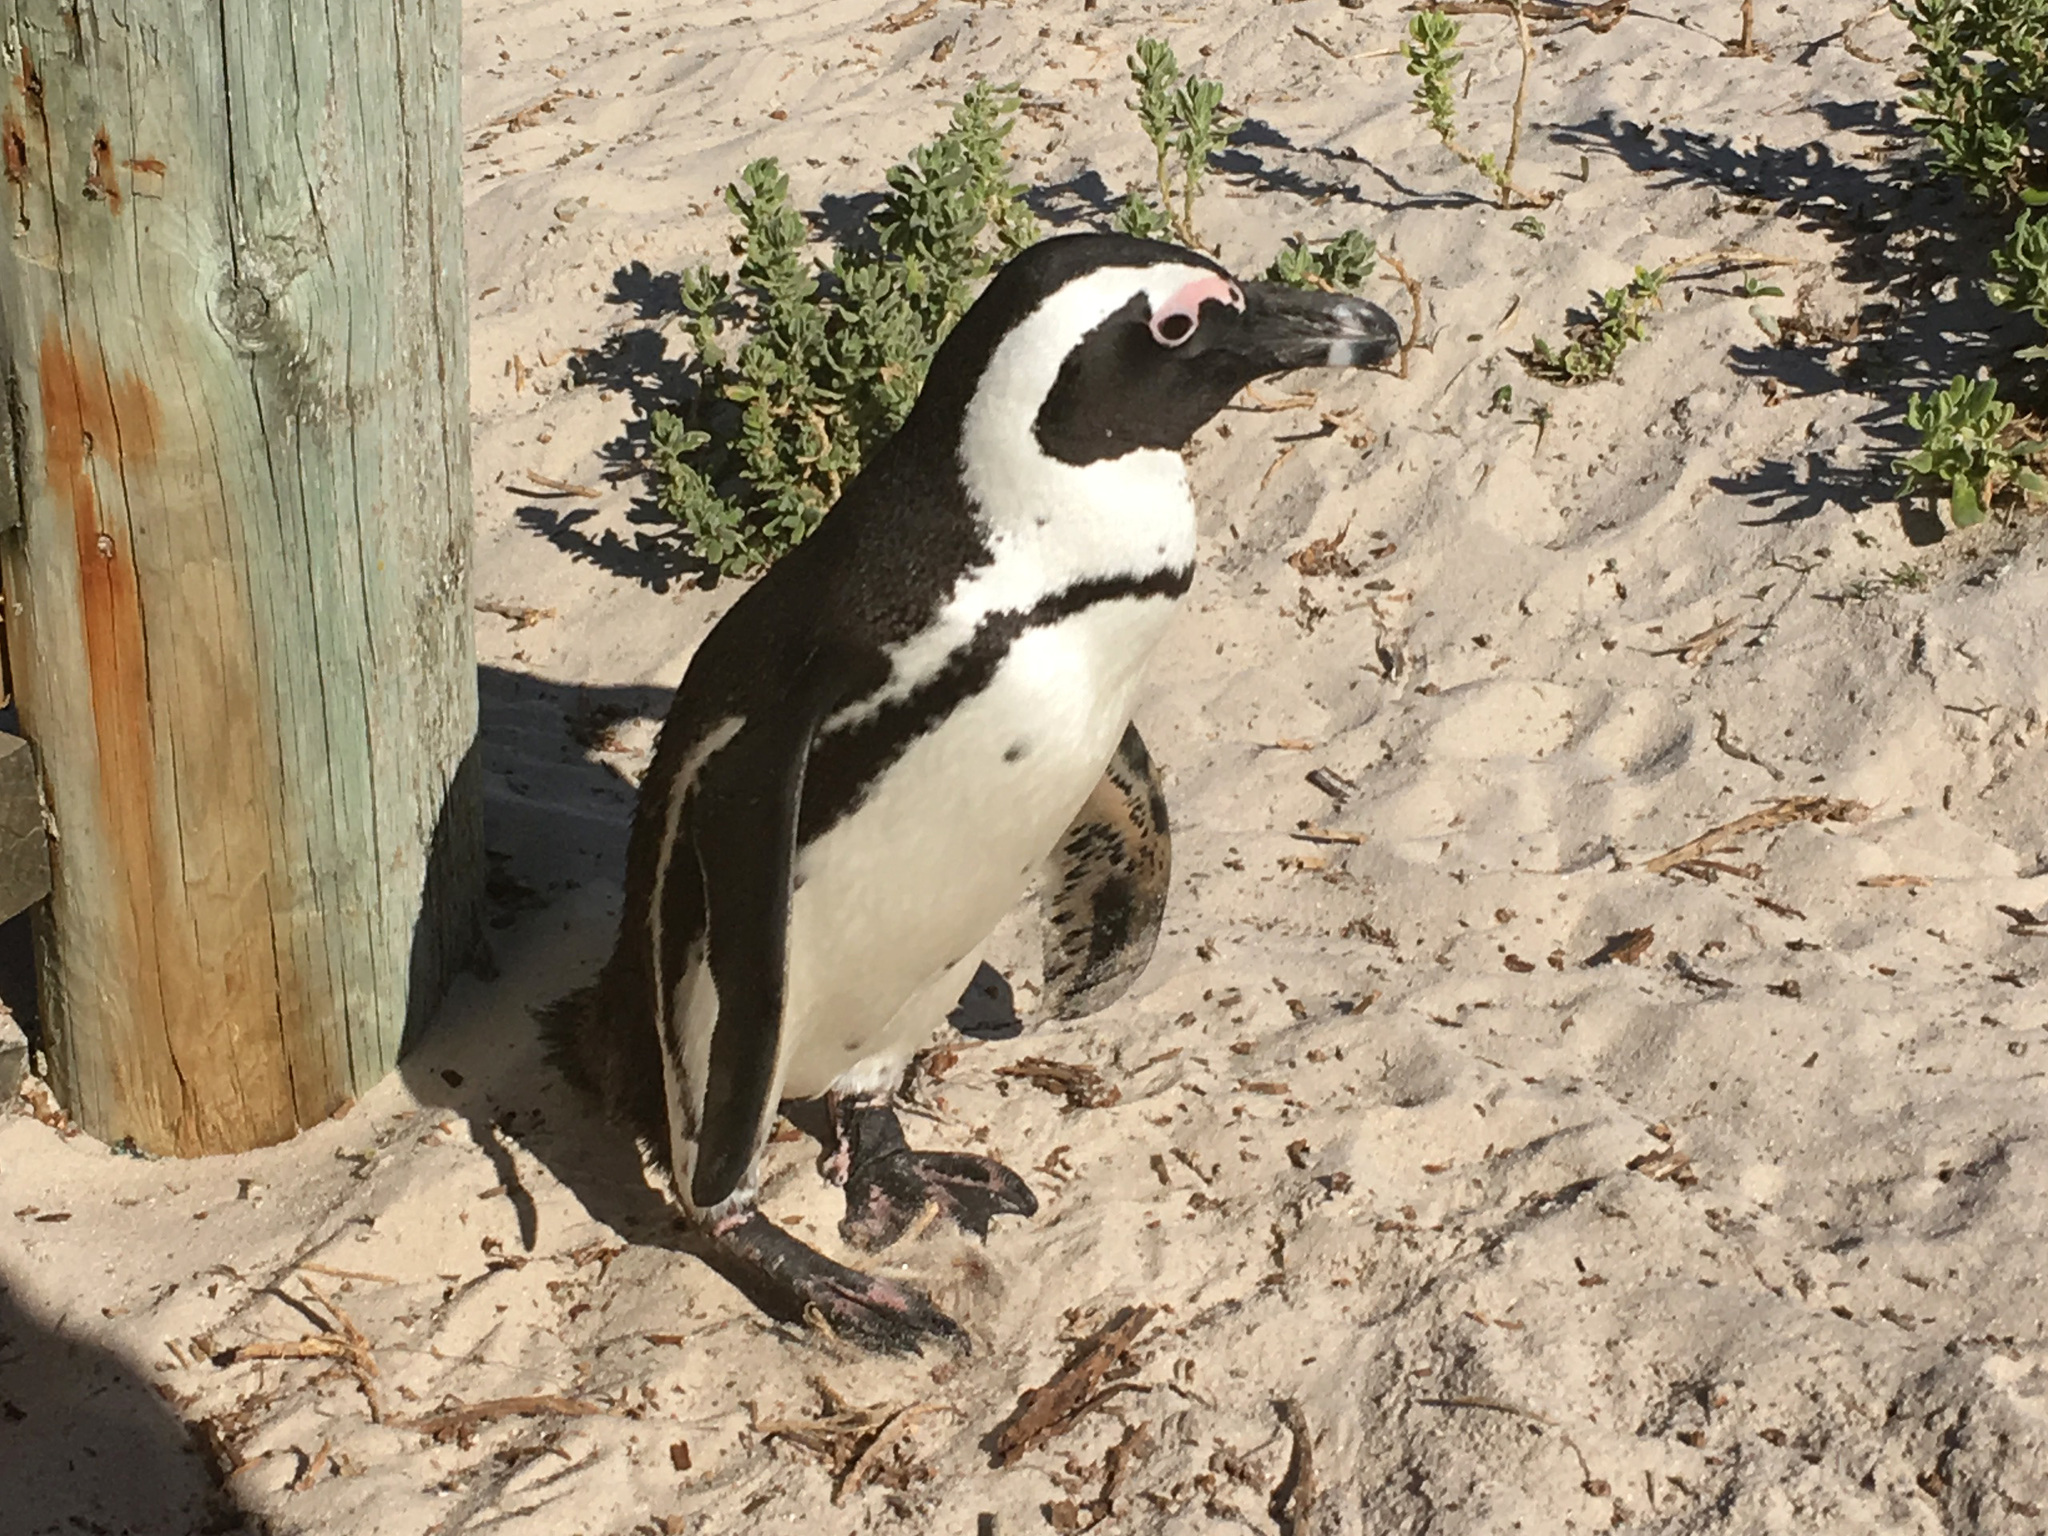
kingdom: Animalia
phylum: Chordata
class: Aves
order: Sphenisciformes
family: Spheniscidae
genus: Spheniscus
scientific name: Spheniscus demersus
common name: African penguin
